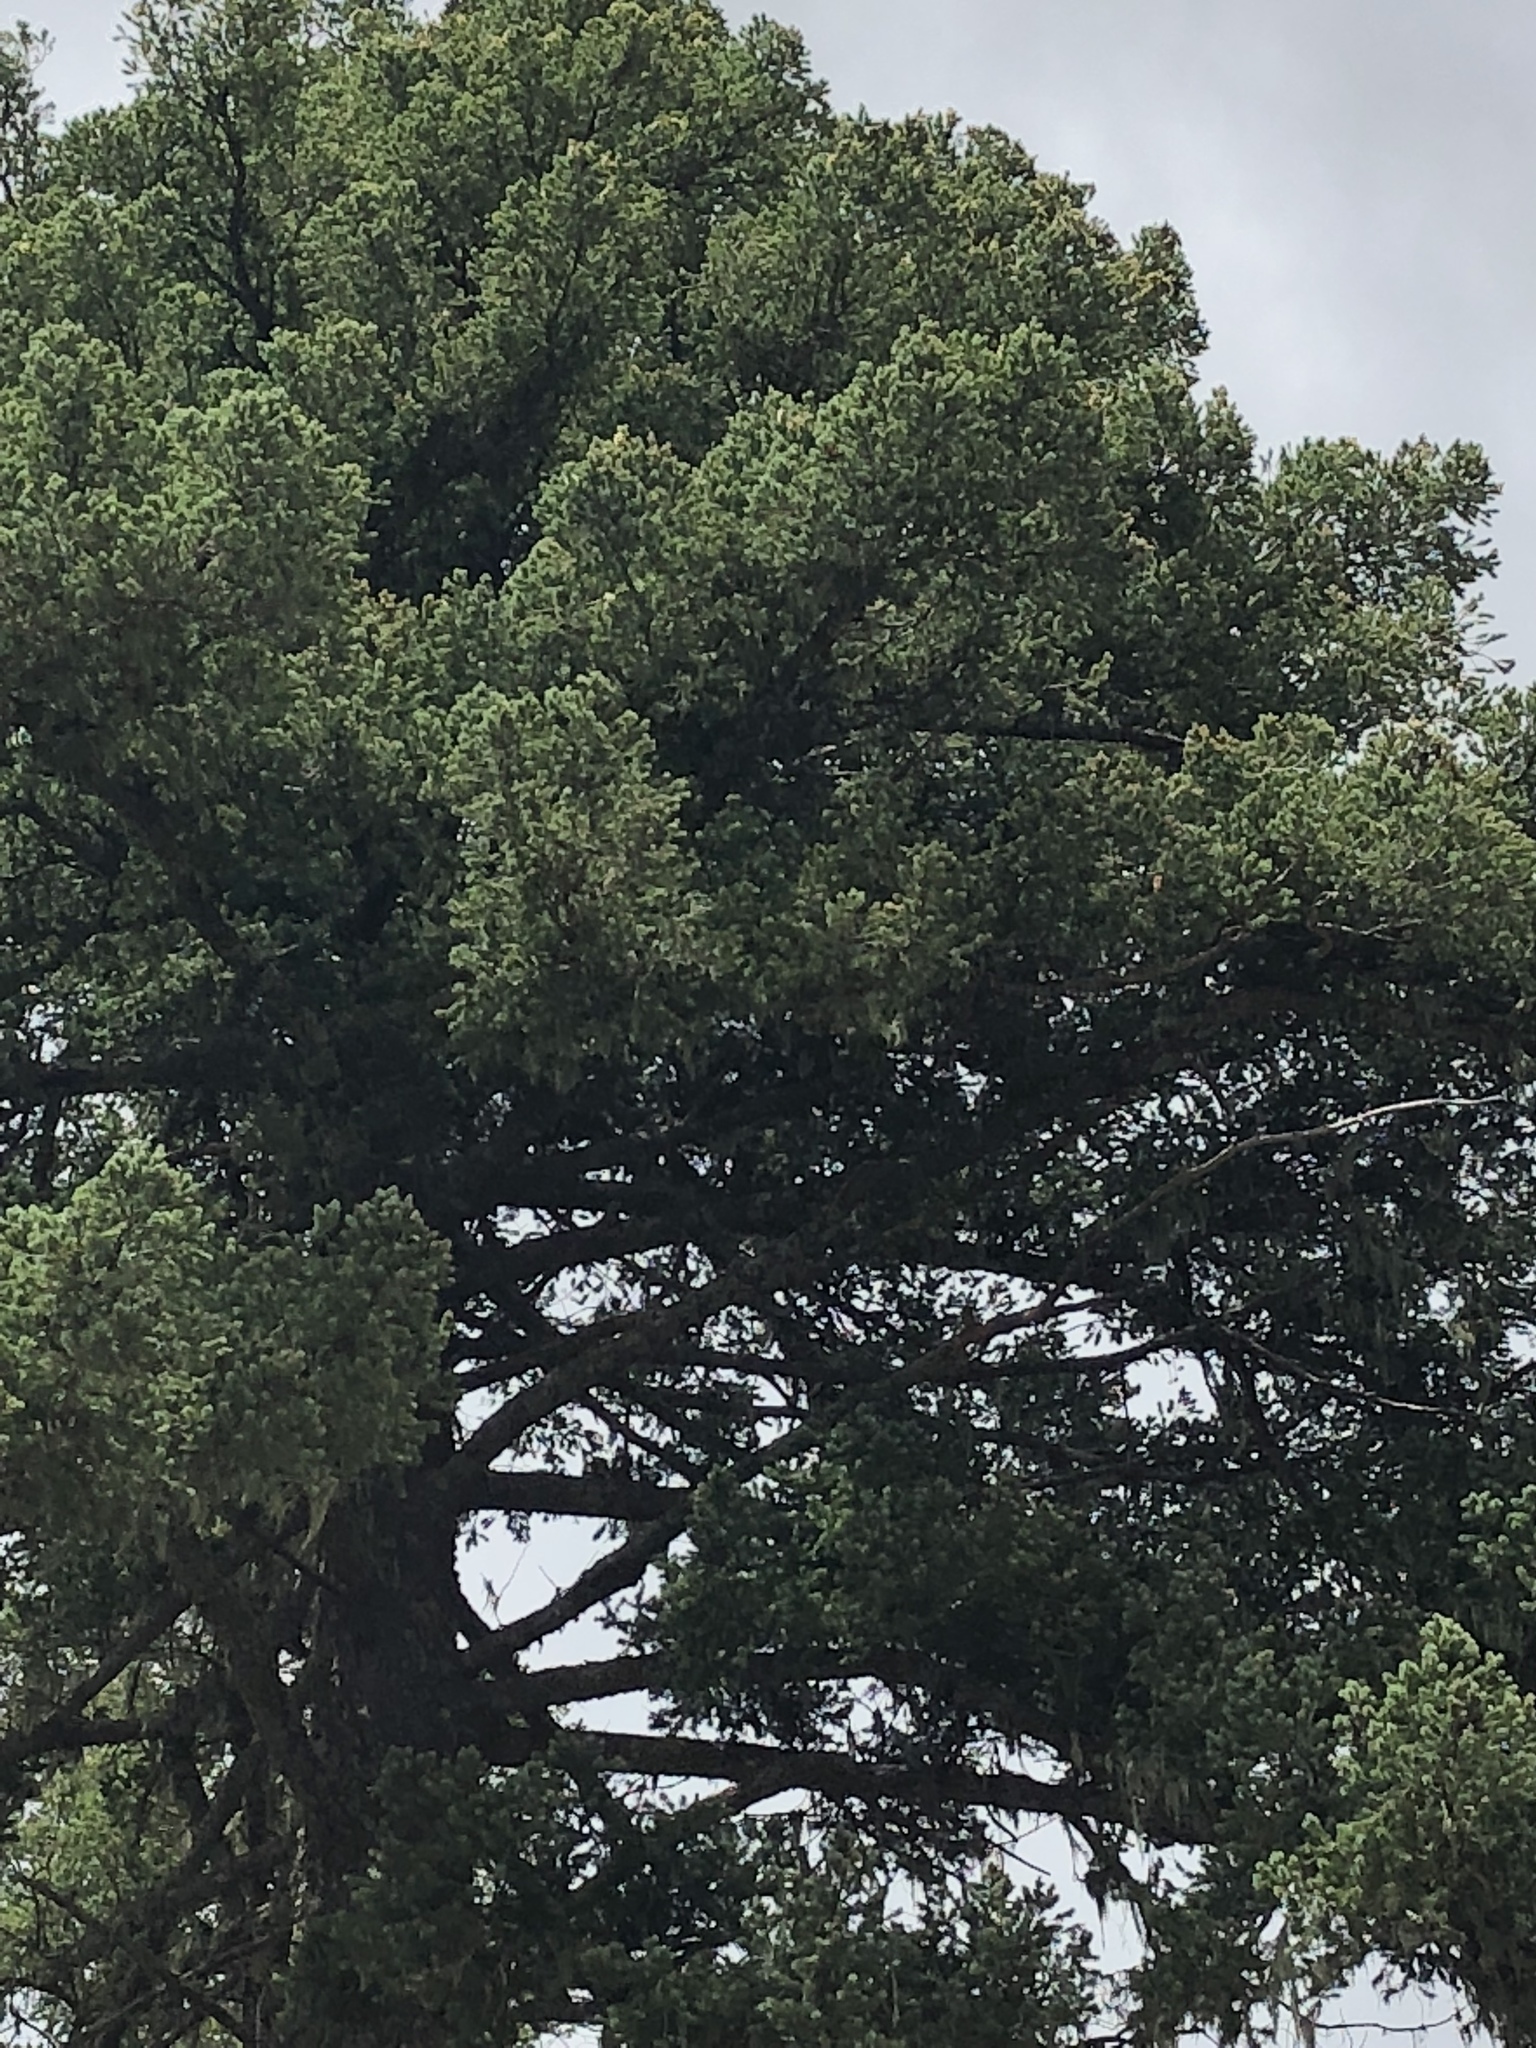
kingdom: Plantae
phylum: Tracheophyta
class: Pinopsida
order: Pinales
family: Pinaceae
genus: Pseudotsuga
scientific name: Pseudotsuga menziesii
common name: Douglas fir
